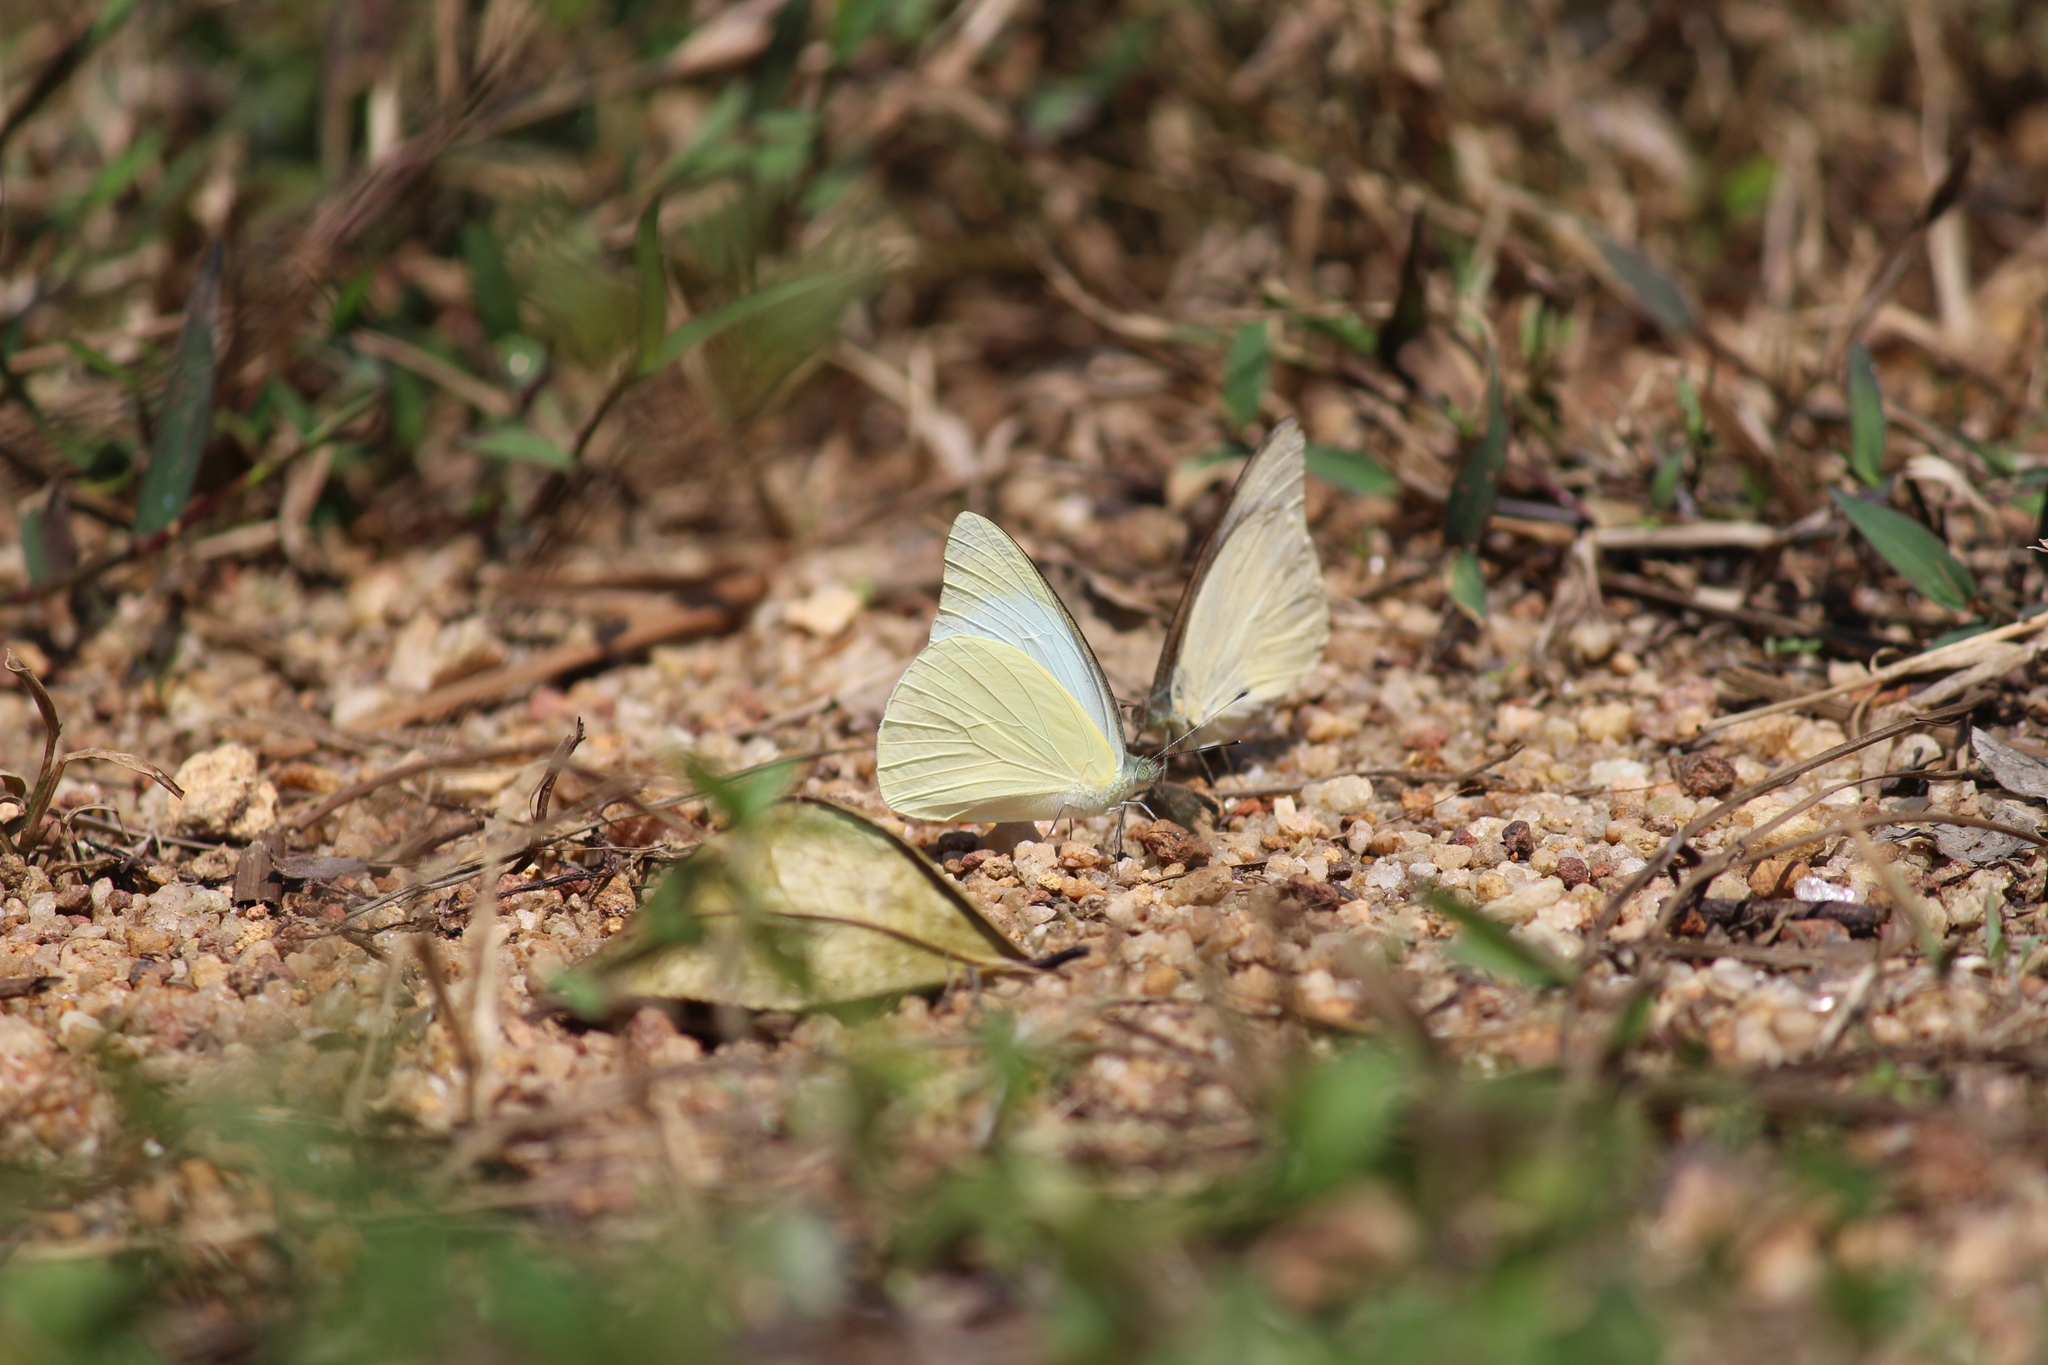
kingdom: Animalia
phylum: Arthropoda
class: Insecta
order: Lepidoptera
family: Pieridae
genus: Appias
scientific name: Appias albina
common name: Common albatross
